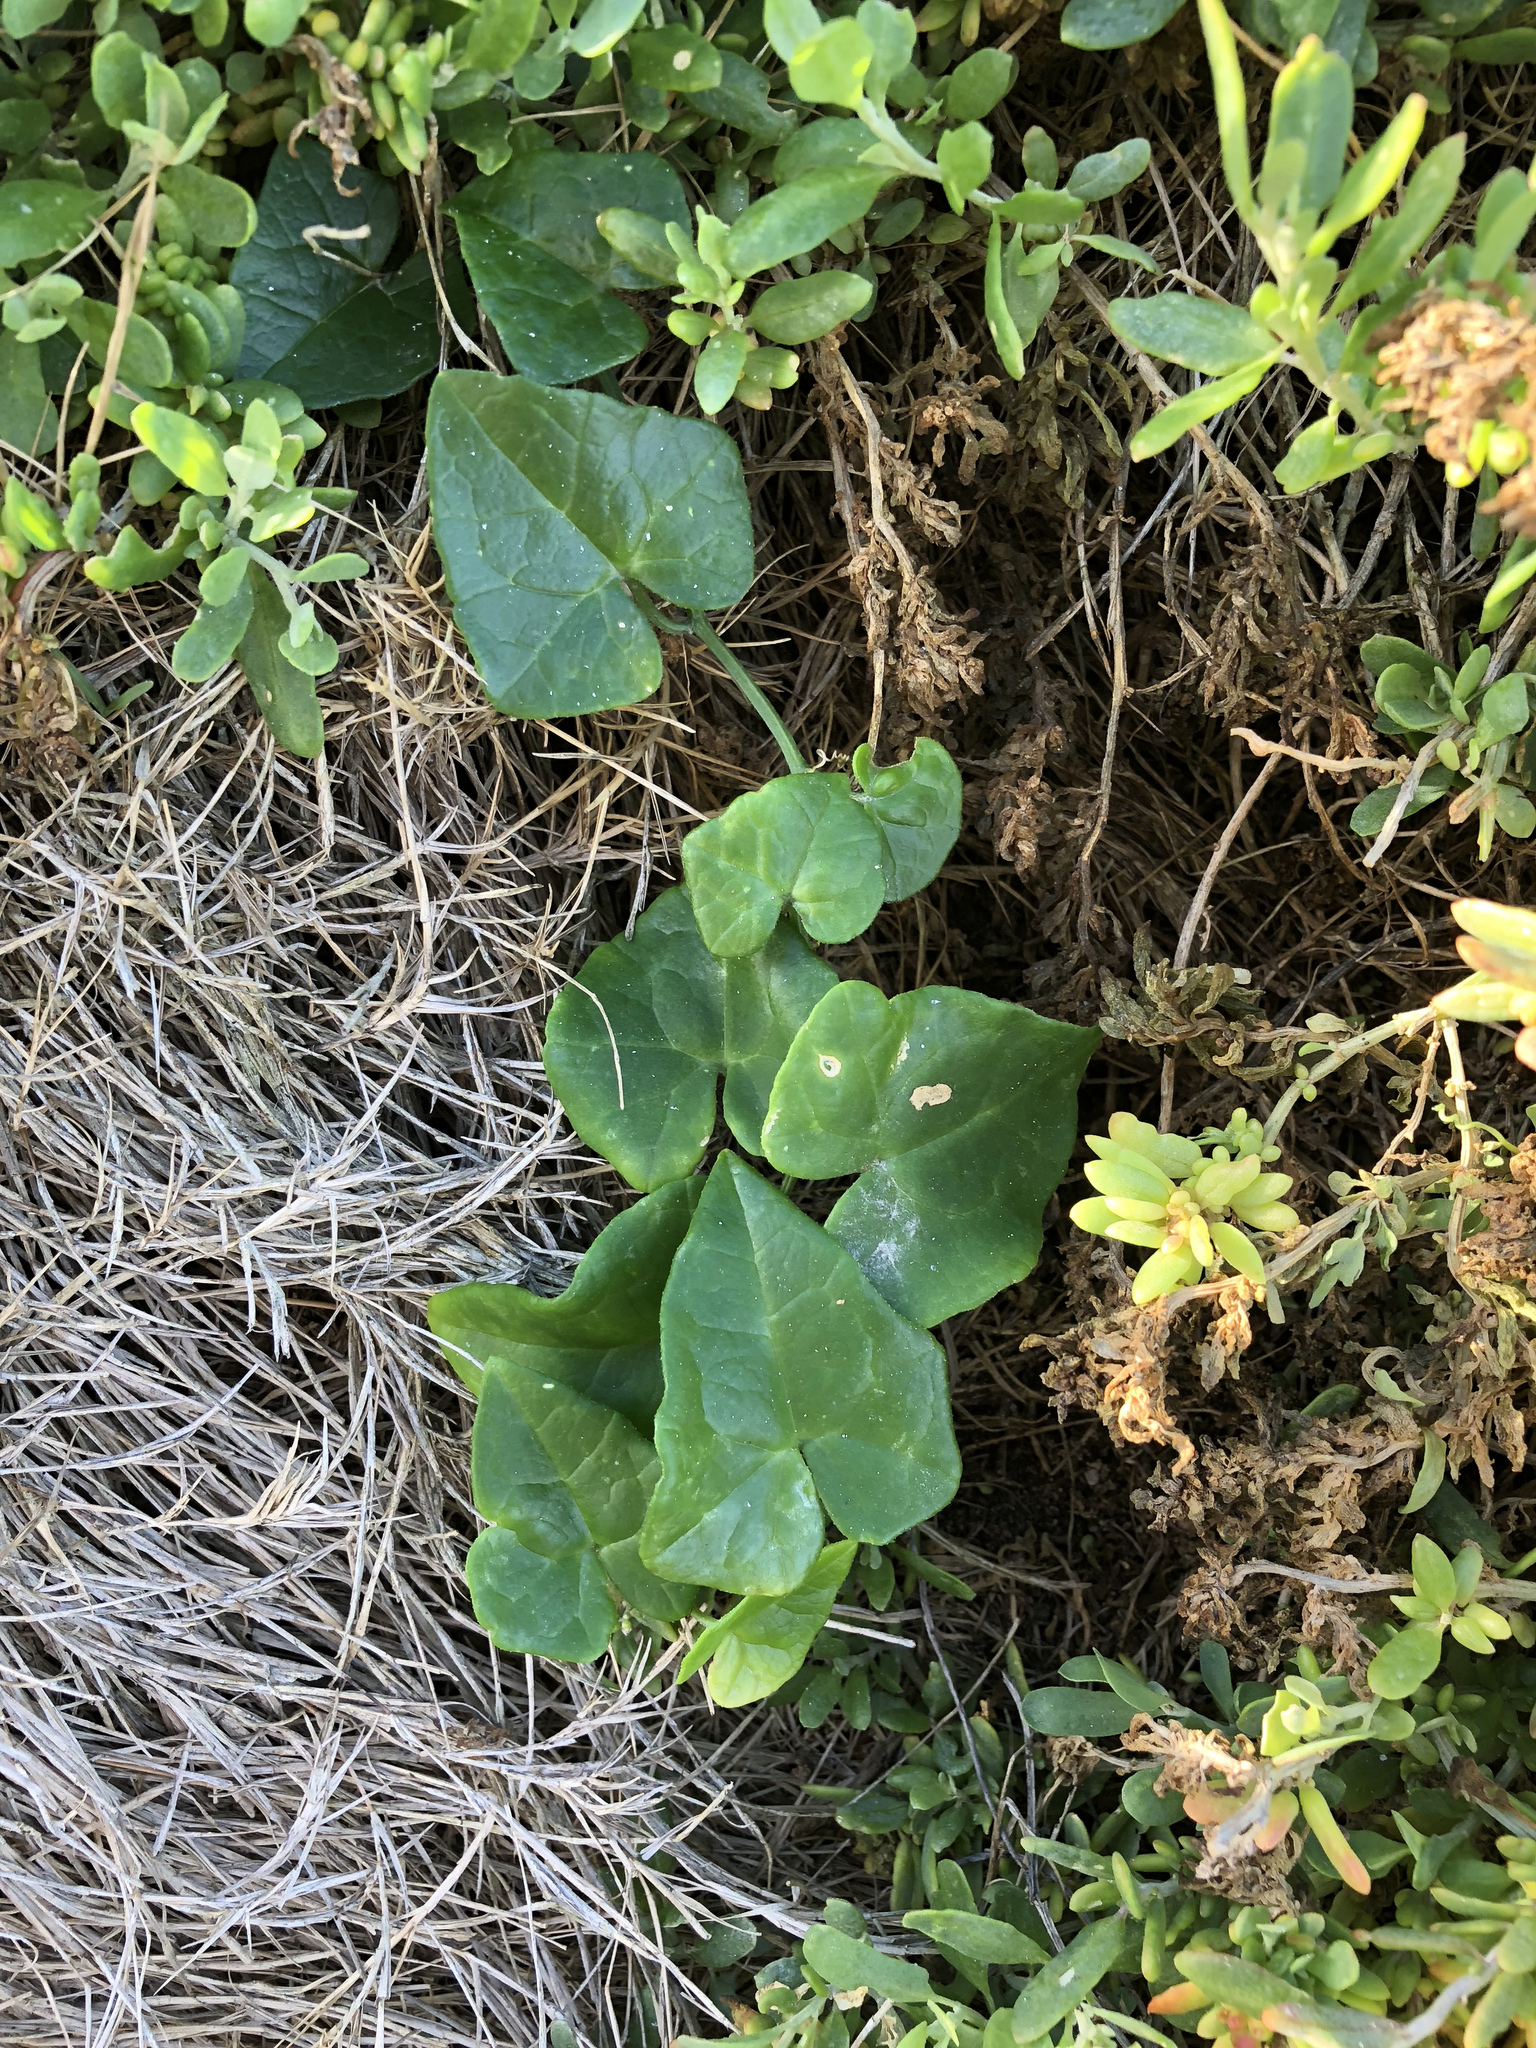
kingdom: Plantae
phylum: Tracheophyta
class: Magnoliopsida
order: Cucurbitales
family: Cucurbitaceae
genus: Kedrostis
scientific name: Kedrostis nana
